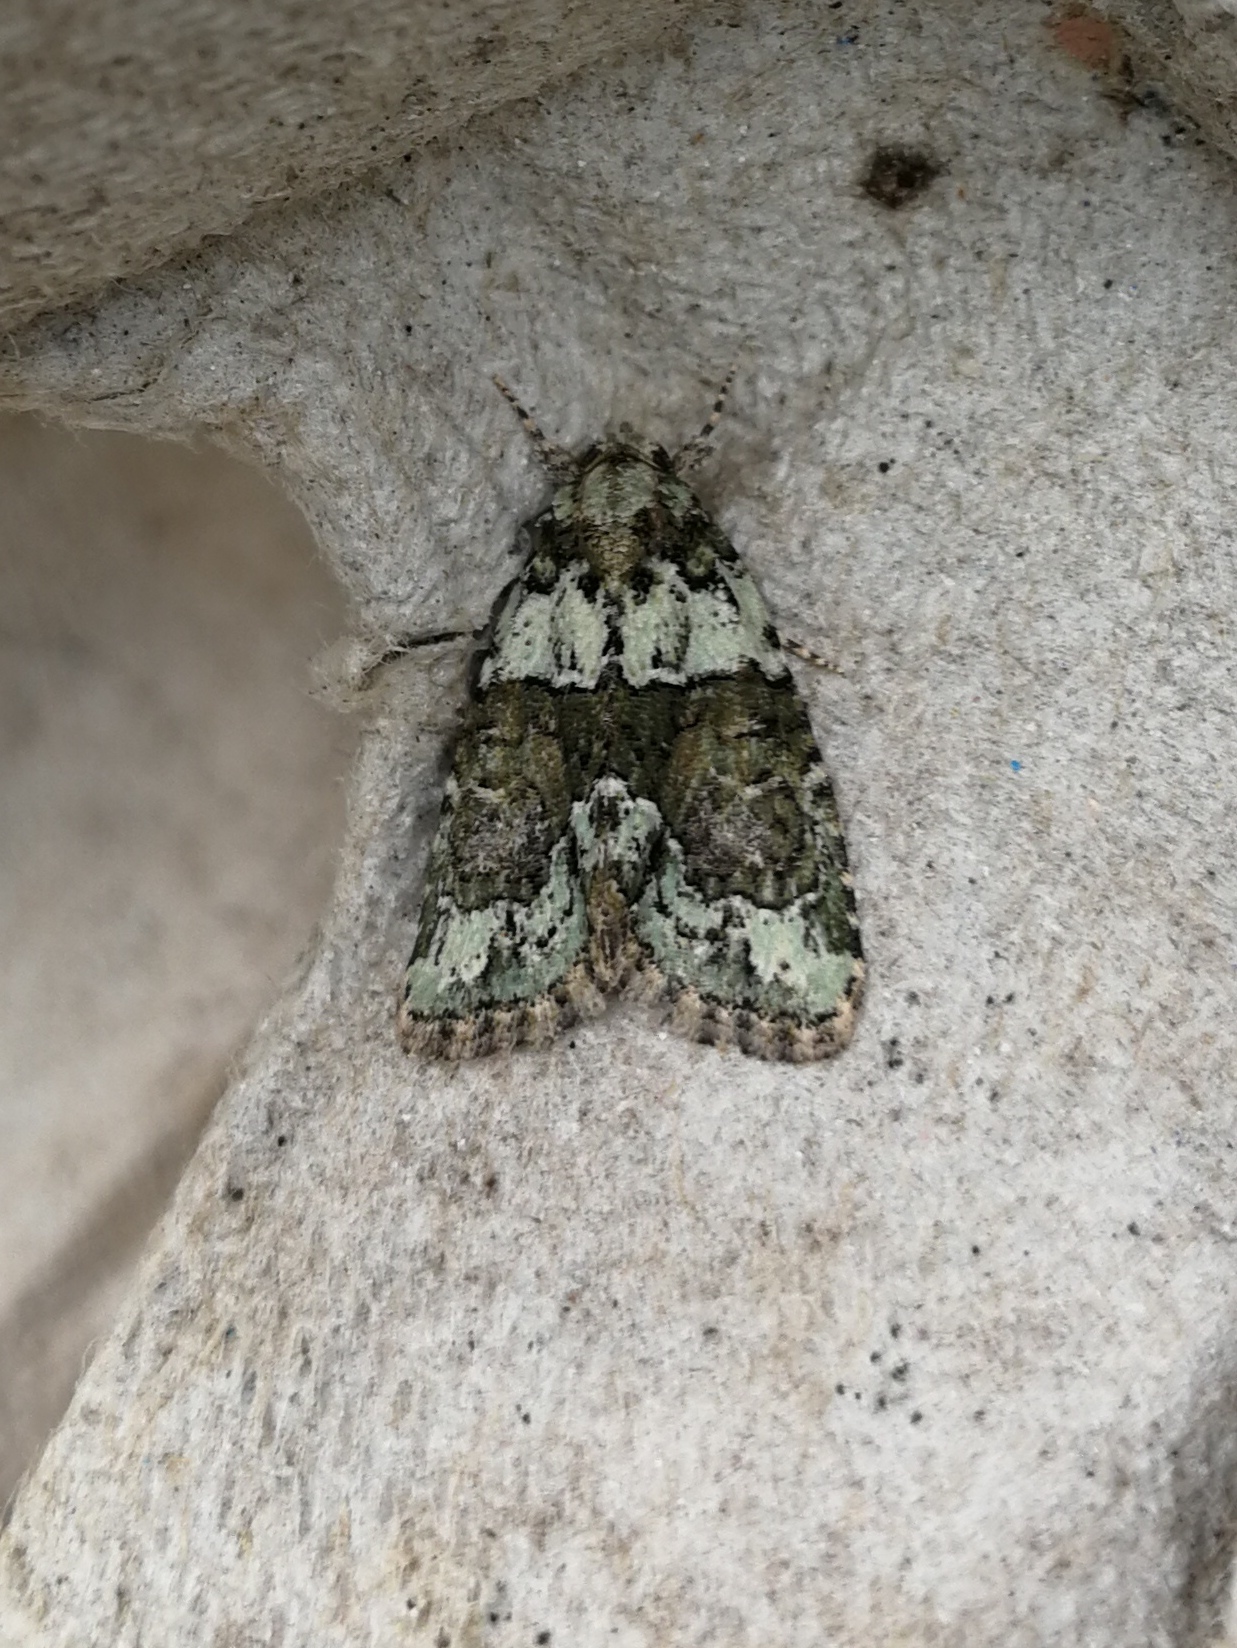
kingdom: Animalia
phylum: Arthropoda
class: Insecta
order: Lepidoptera
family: Noctuidae
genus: Cryphia
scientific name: Cryphia algae
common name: Tree-lichen beauty
